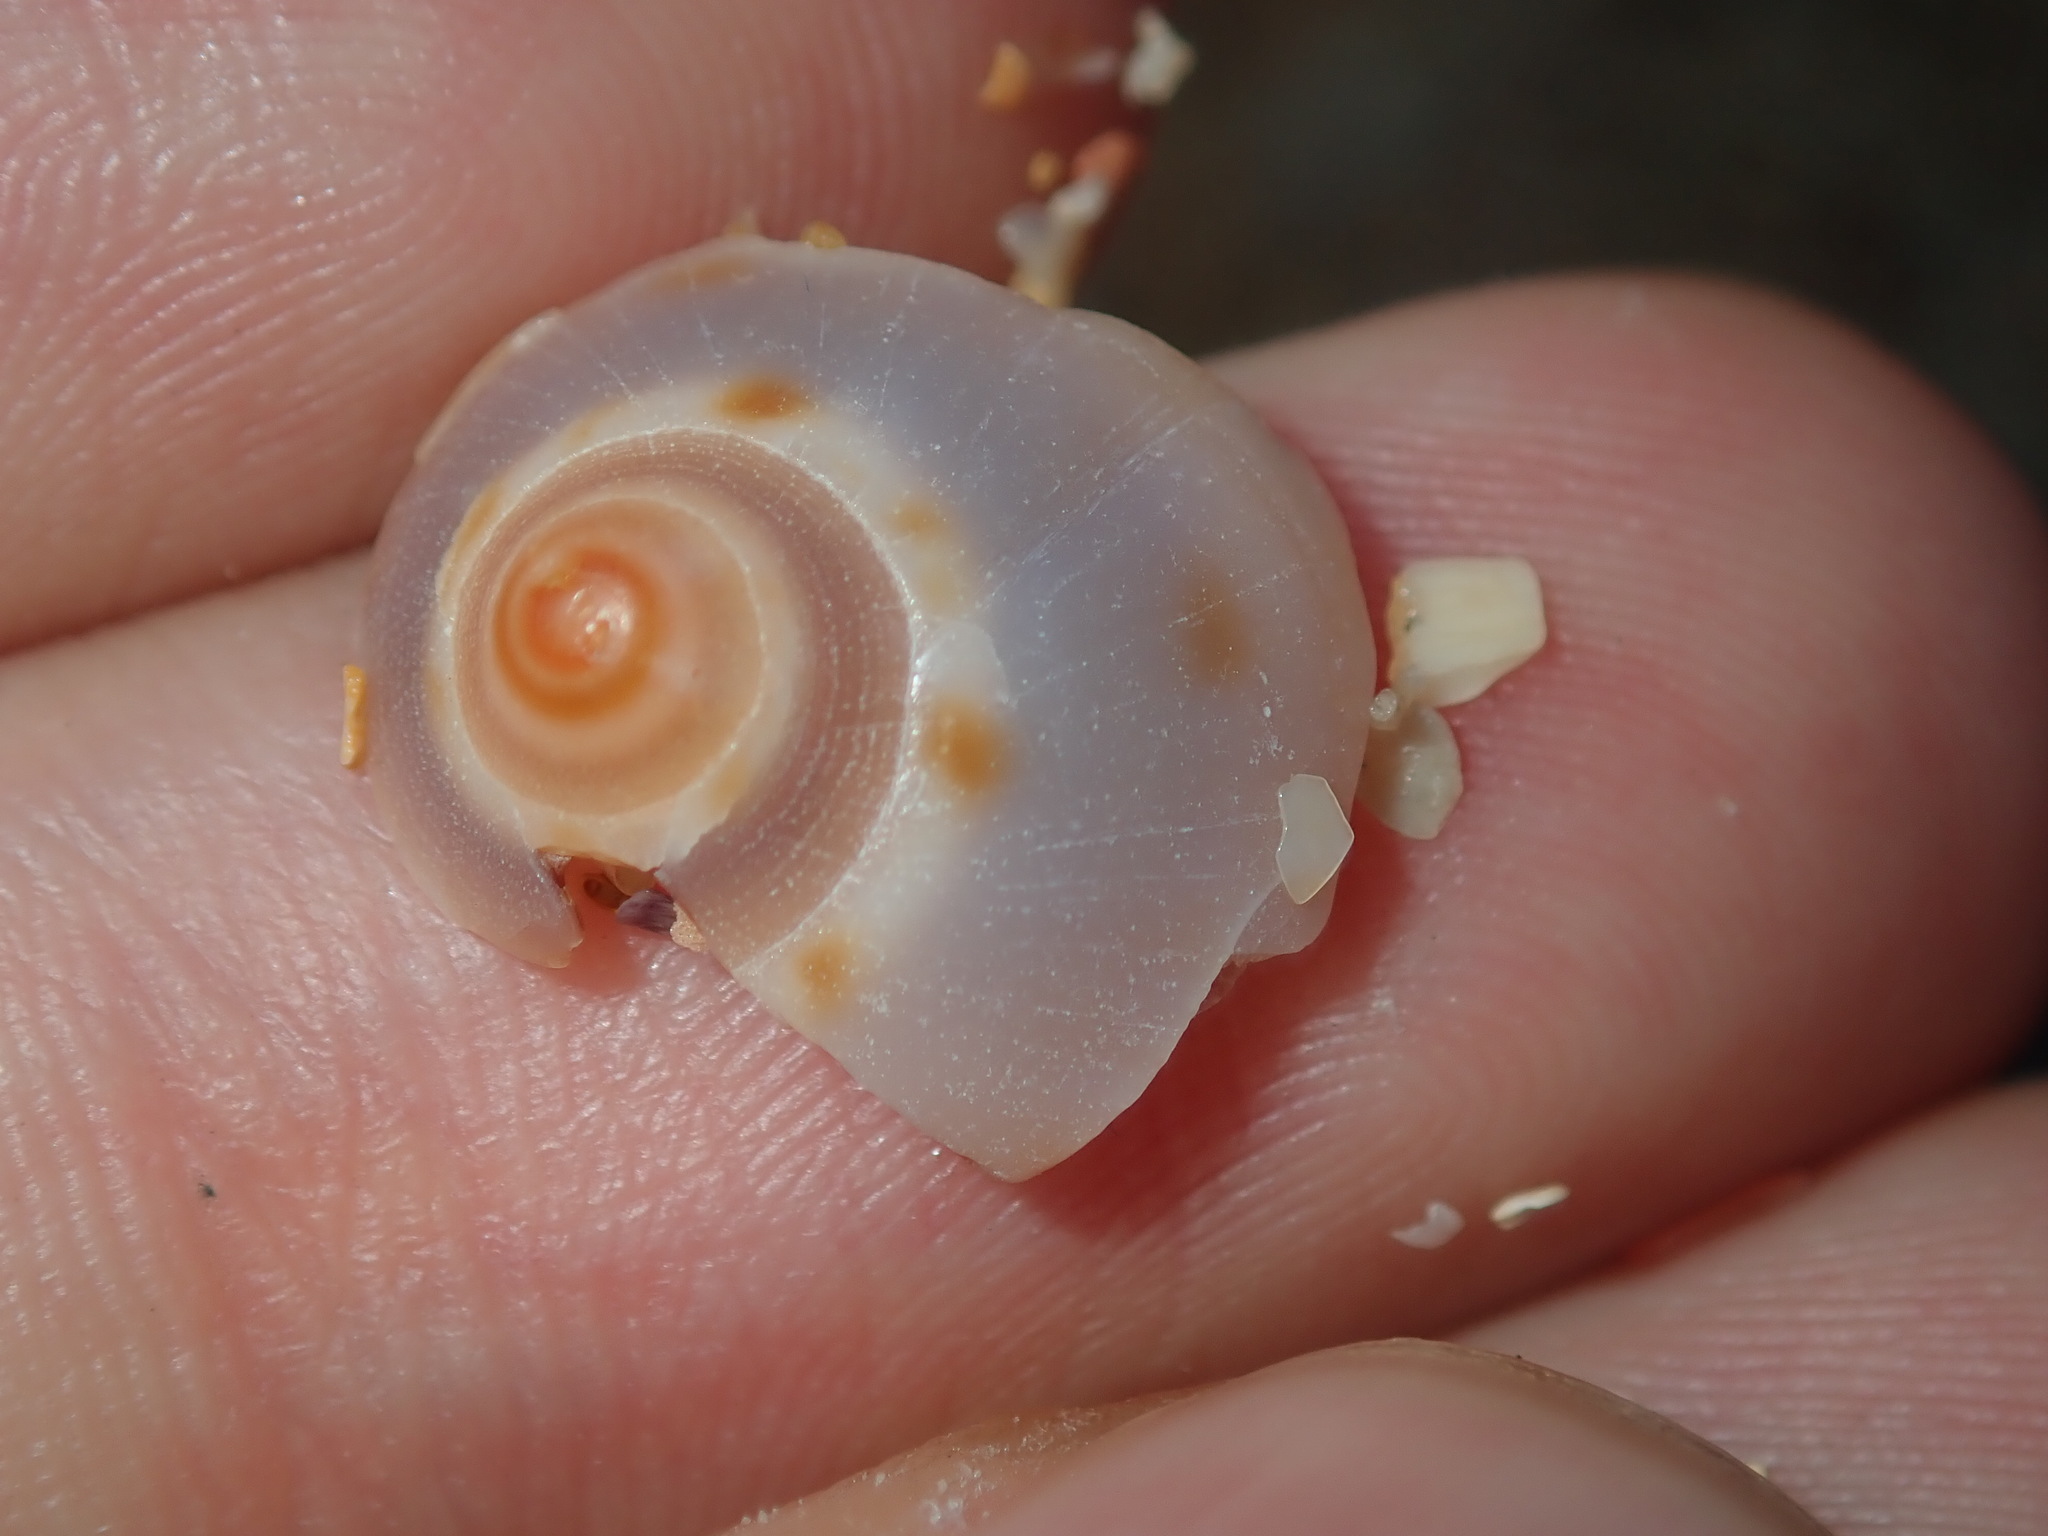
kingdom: Animalia
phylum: Mollusca
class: Gastropoda
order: Littorinimorpha
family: Cassidae
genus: Semicassis
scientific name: Semicassis labiata
